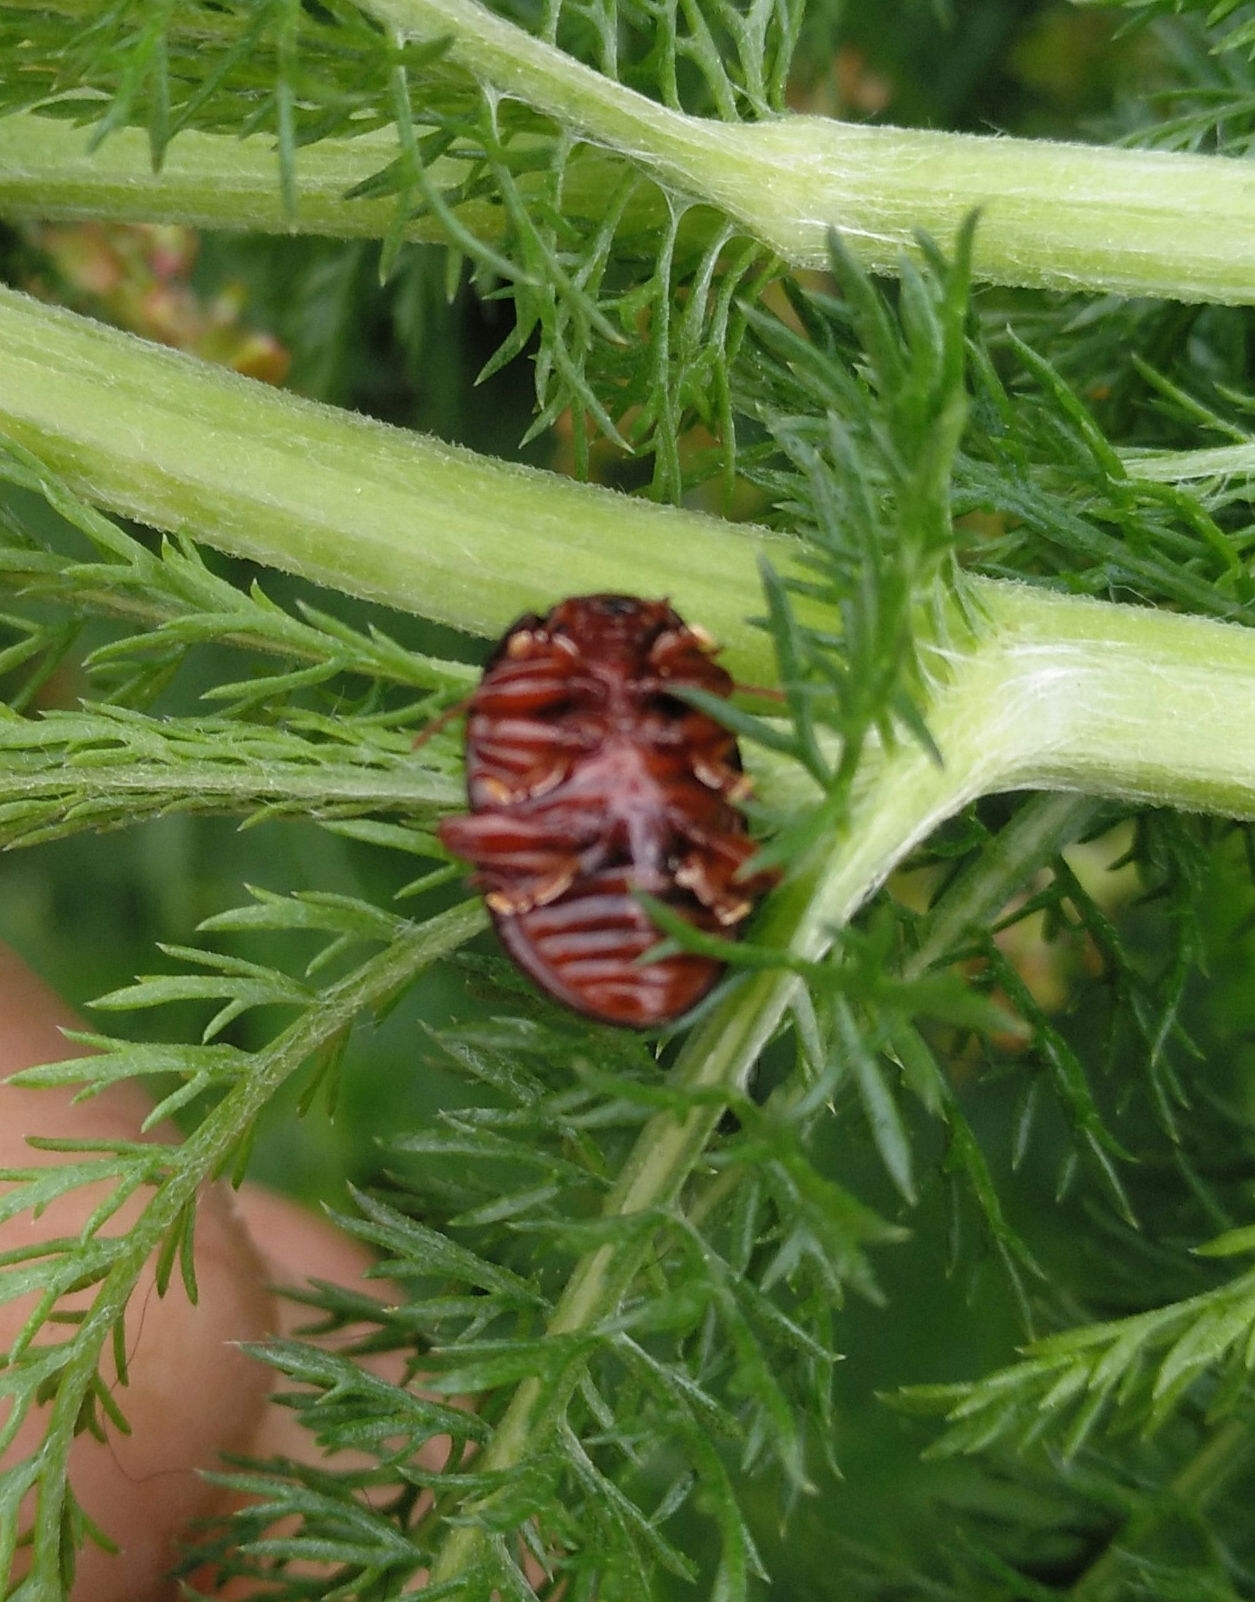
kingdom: Animalia
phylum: Arthropoda
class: Insecta
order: Coleoptera
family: Chrysomelidae
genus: Chrysolina
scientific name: Chrysolina bankii
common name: Leaf beetle
